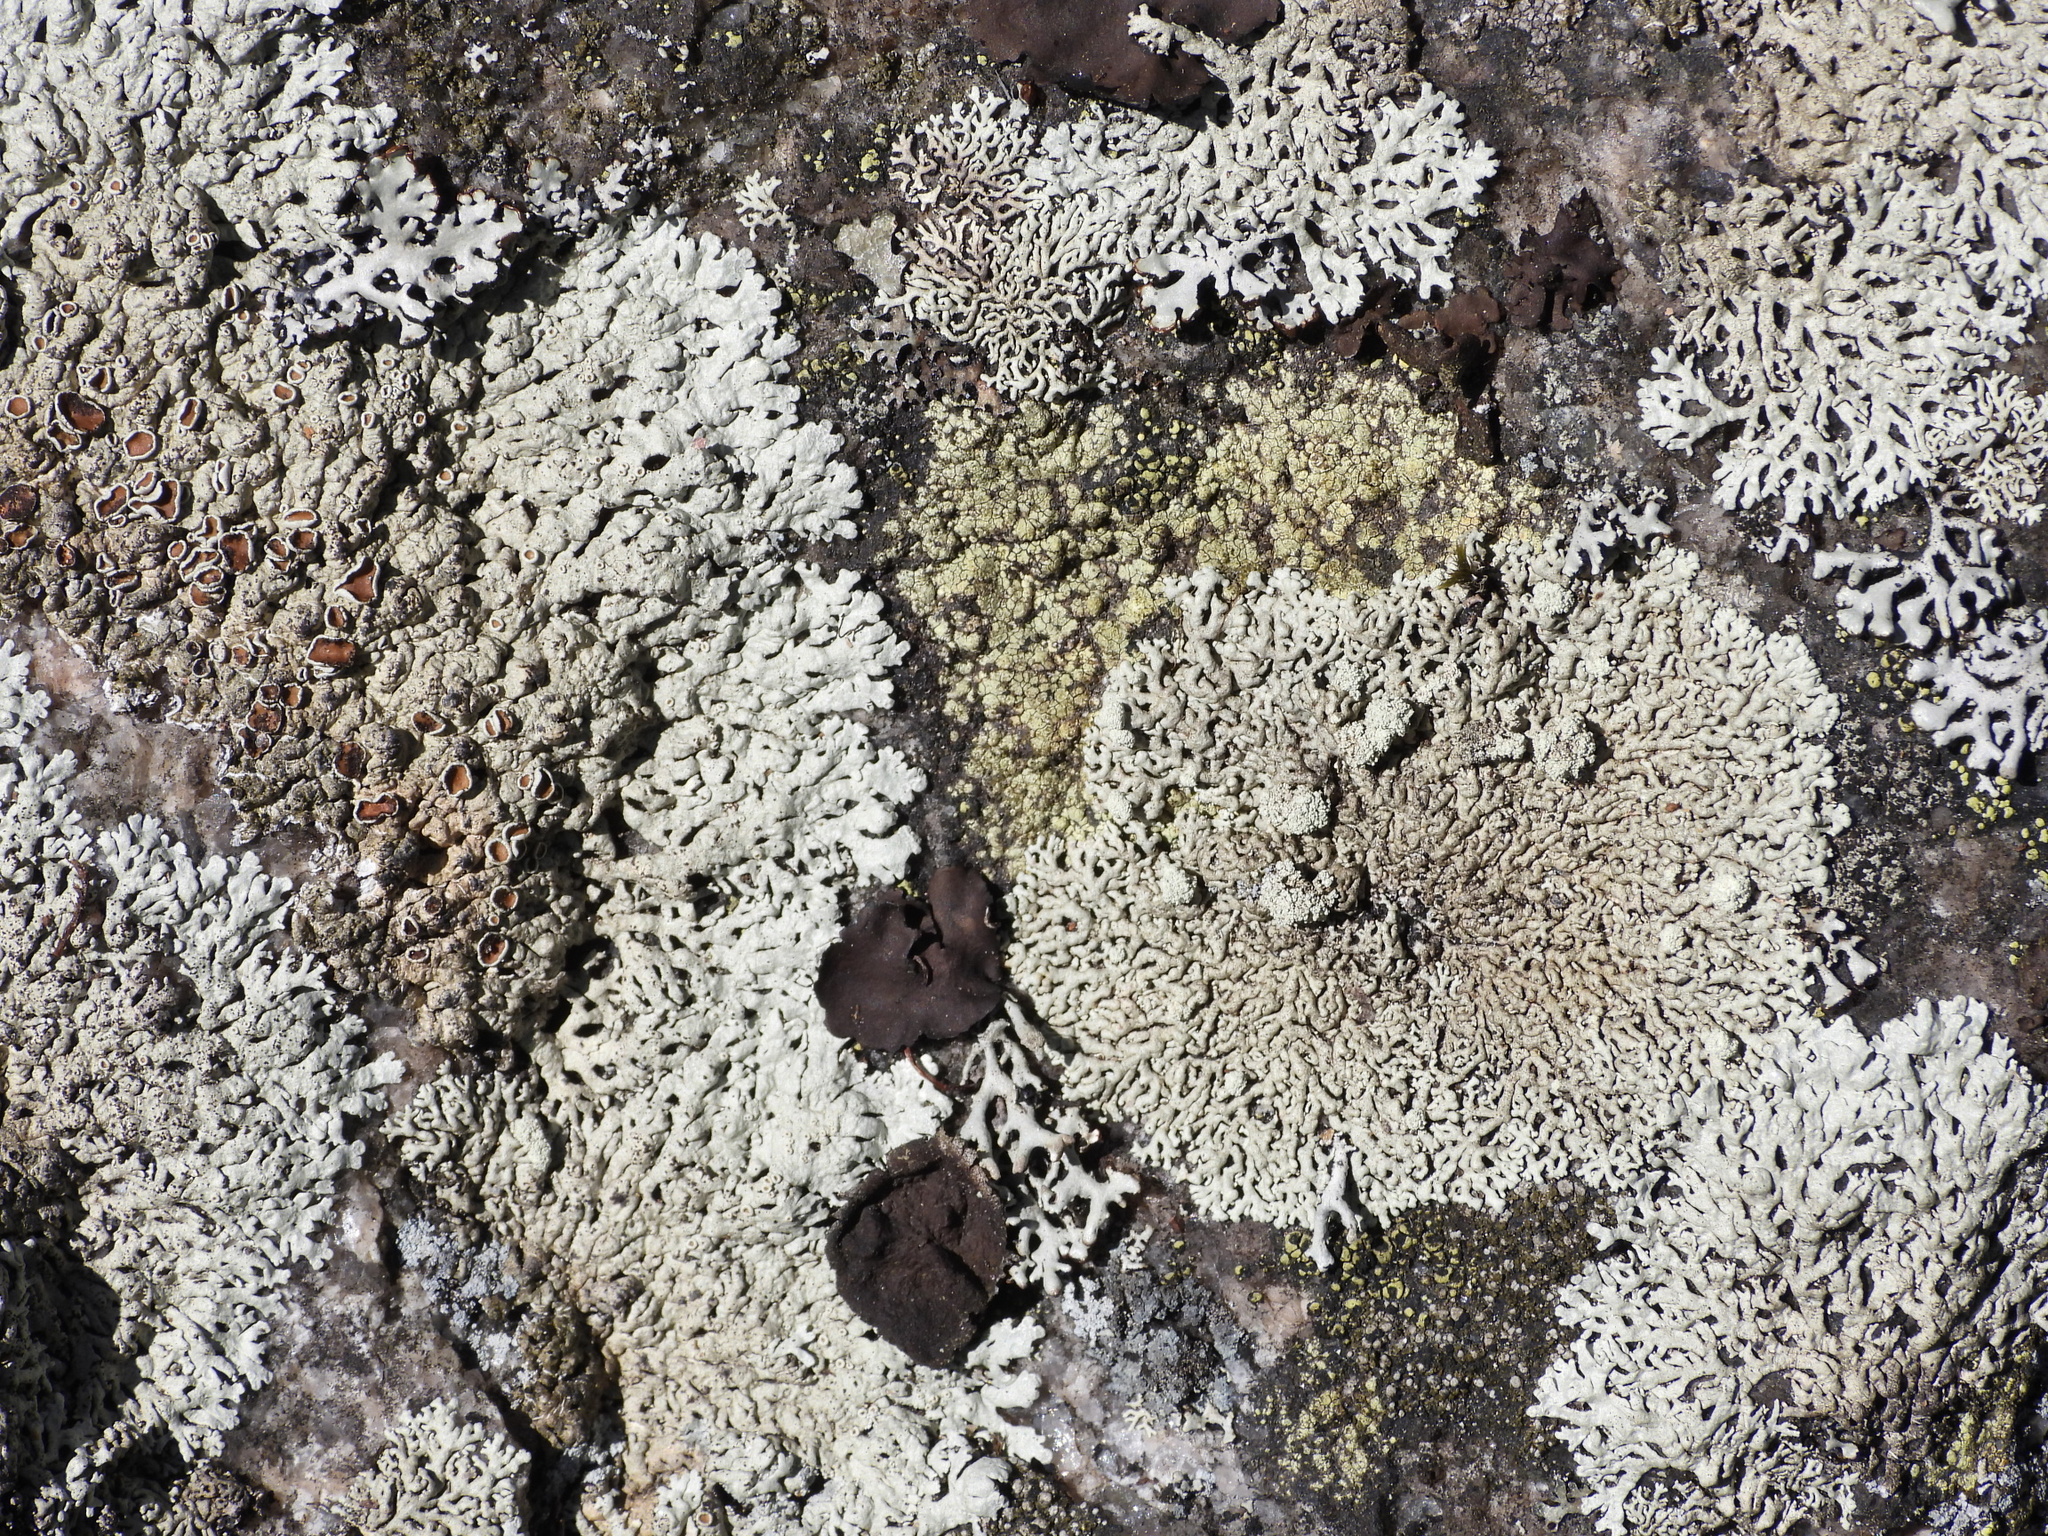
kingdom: Fungi
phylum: Ascomycota
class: Lecanoromycetes
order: Lecanorales
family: Parmeliaceae
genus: Arctoparmelia
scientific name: Arctoparmelia centrifuga
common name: Concentric ring lichen
